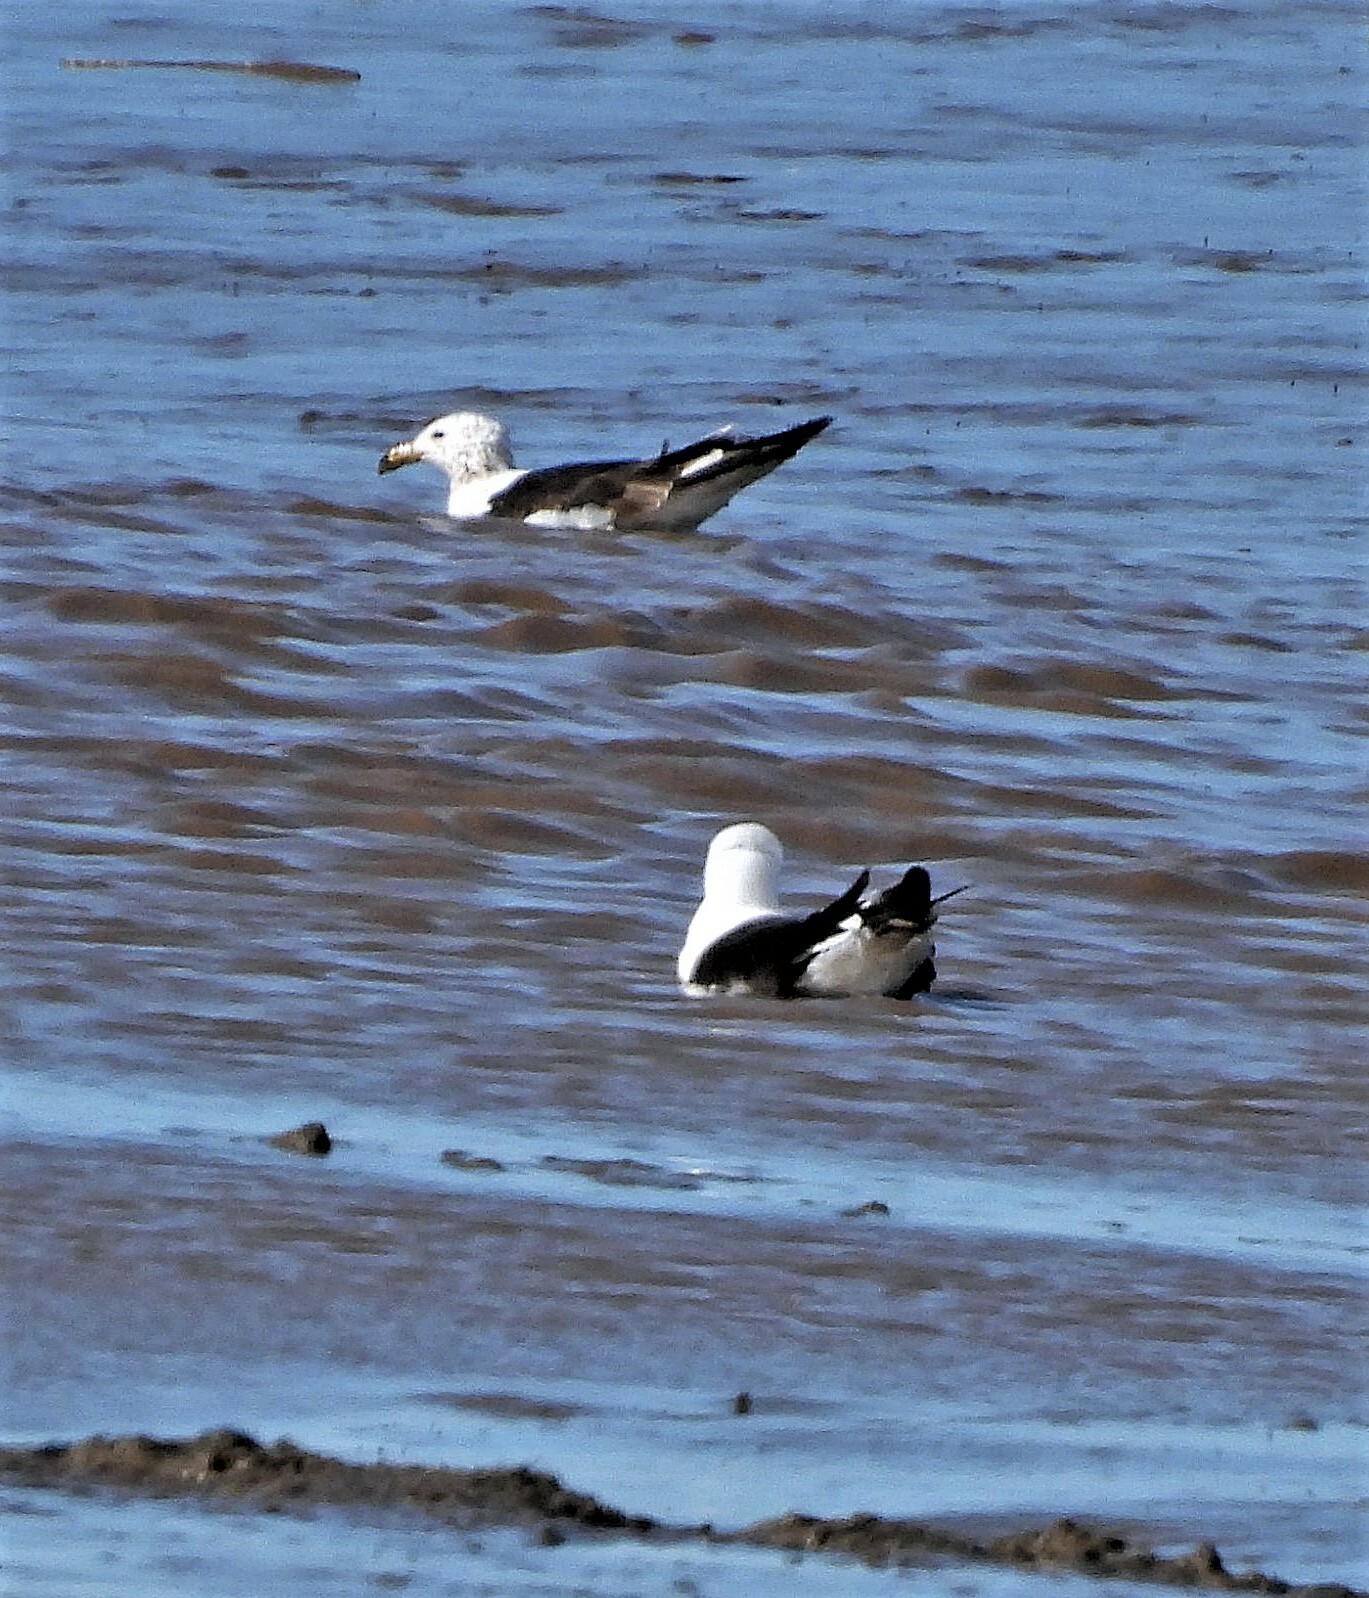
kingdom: Animalia
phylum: Chordata
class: Aves
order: Charadriiformes
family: Laridae
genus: Larus
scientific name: Larus atlanticus
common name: Olrog's gull
